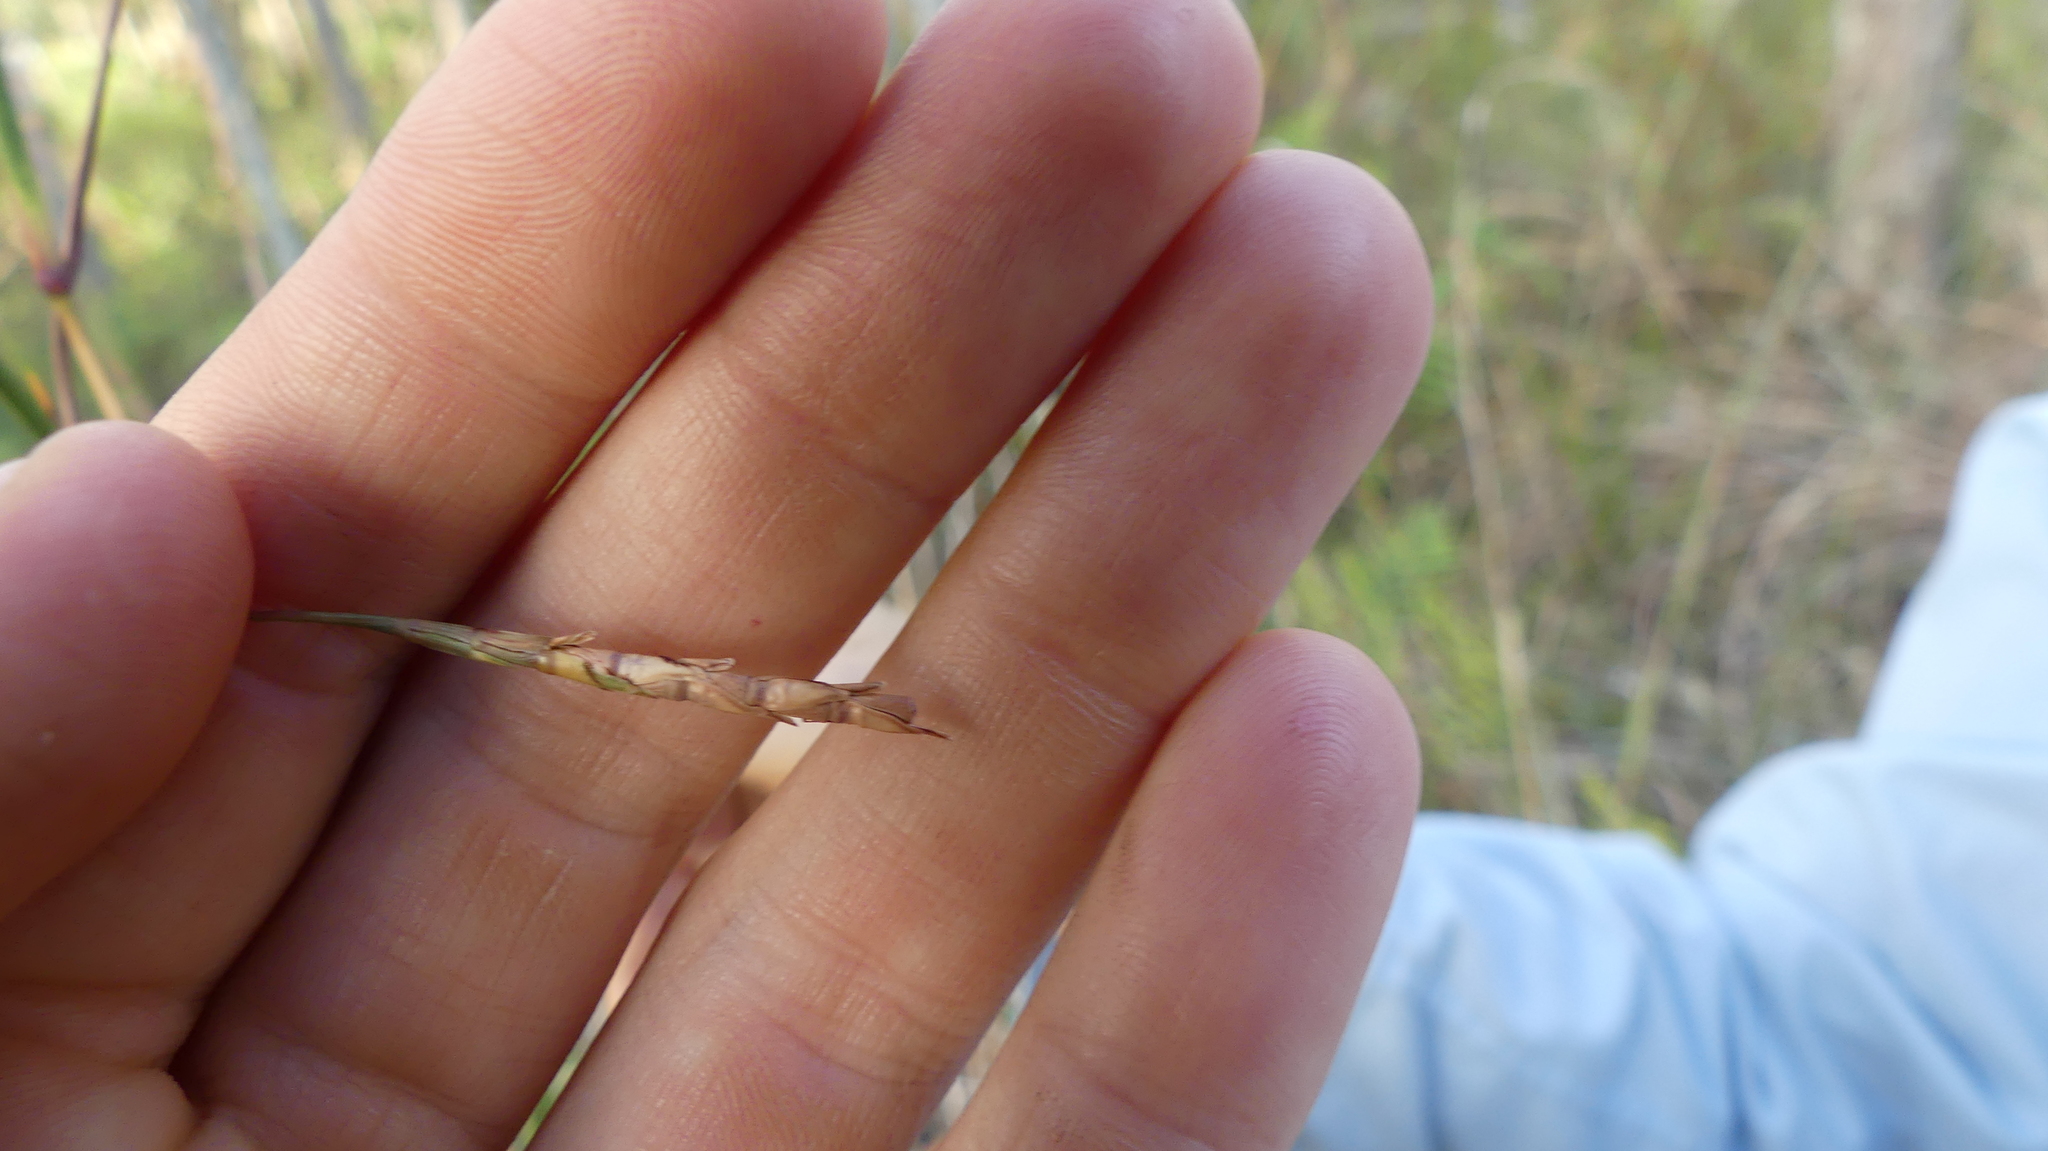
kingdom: Plantae
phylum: Tracheophyta
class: Liliopsida
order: Poales
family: Poaceae
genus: Rottboellia
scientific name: Rottboellia tuberculosa
